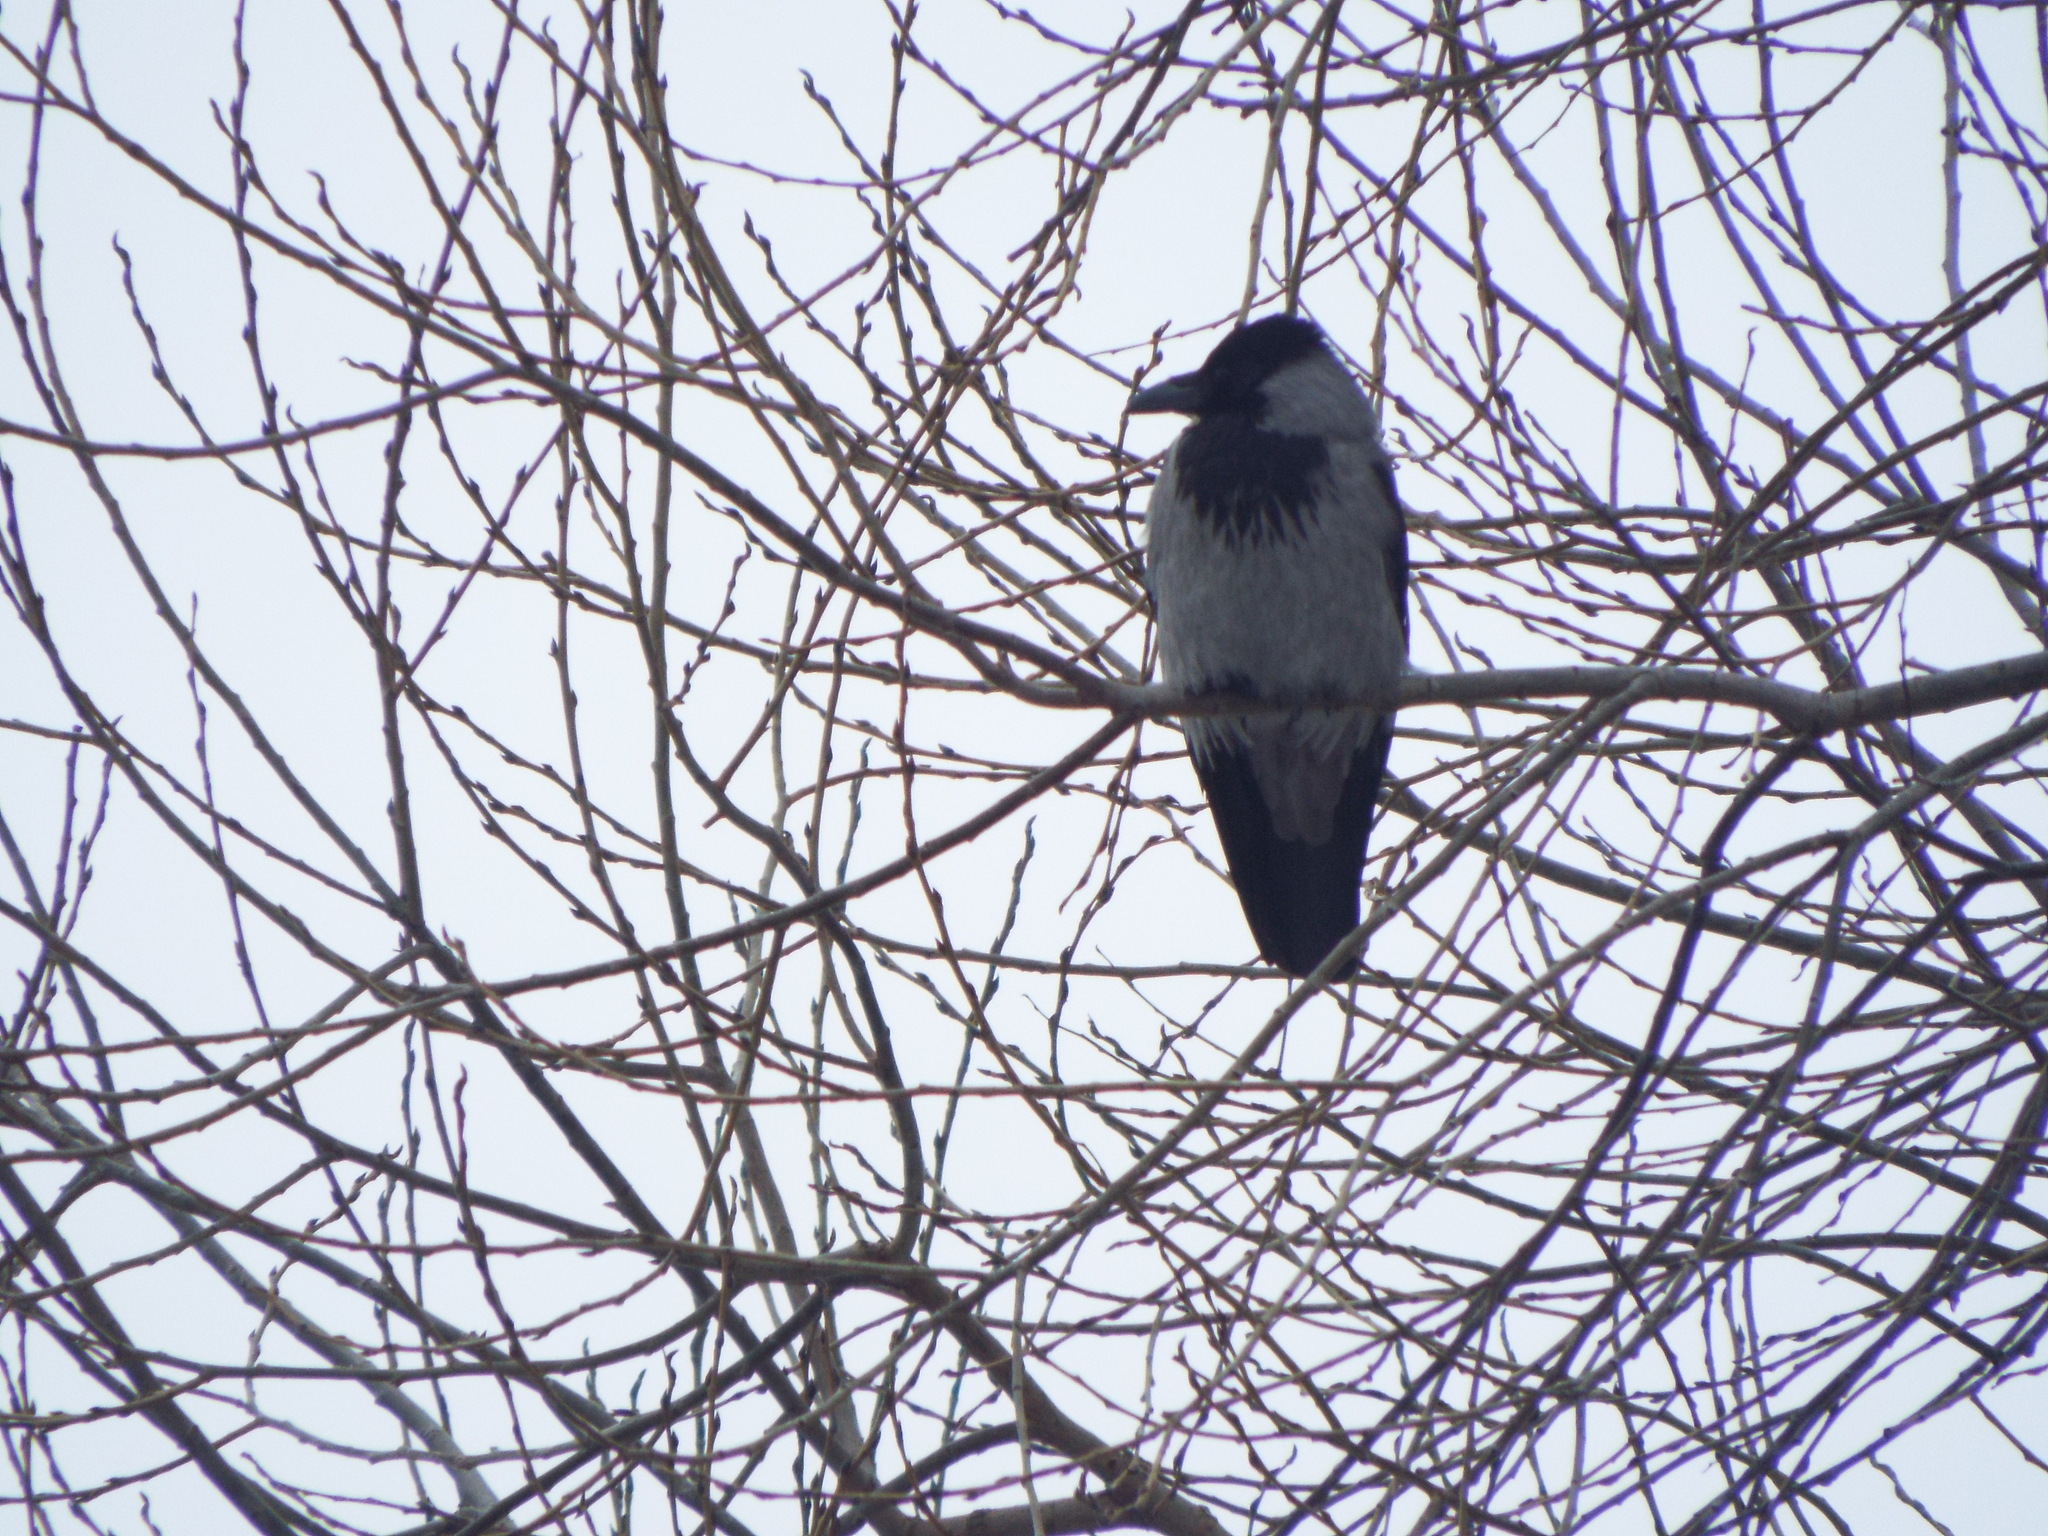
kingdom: Animalia
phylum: Chordata
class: Aves
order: Passeriformes
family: Corvidae
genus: Corvus
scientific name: Corvus cornix
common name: Hooded crow
